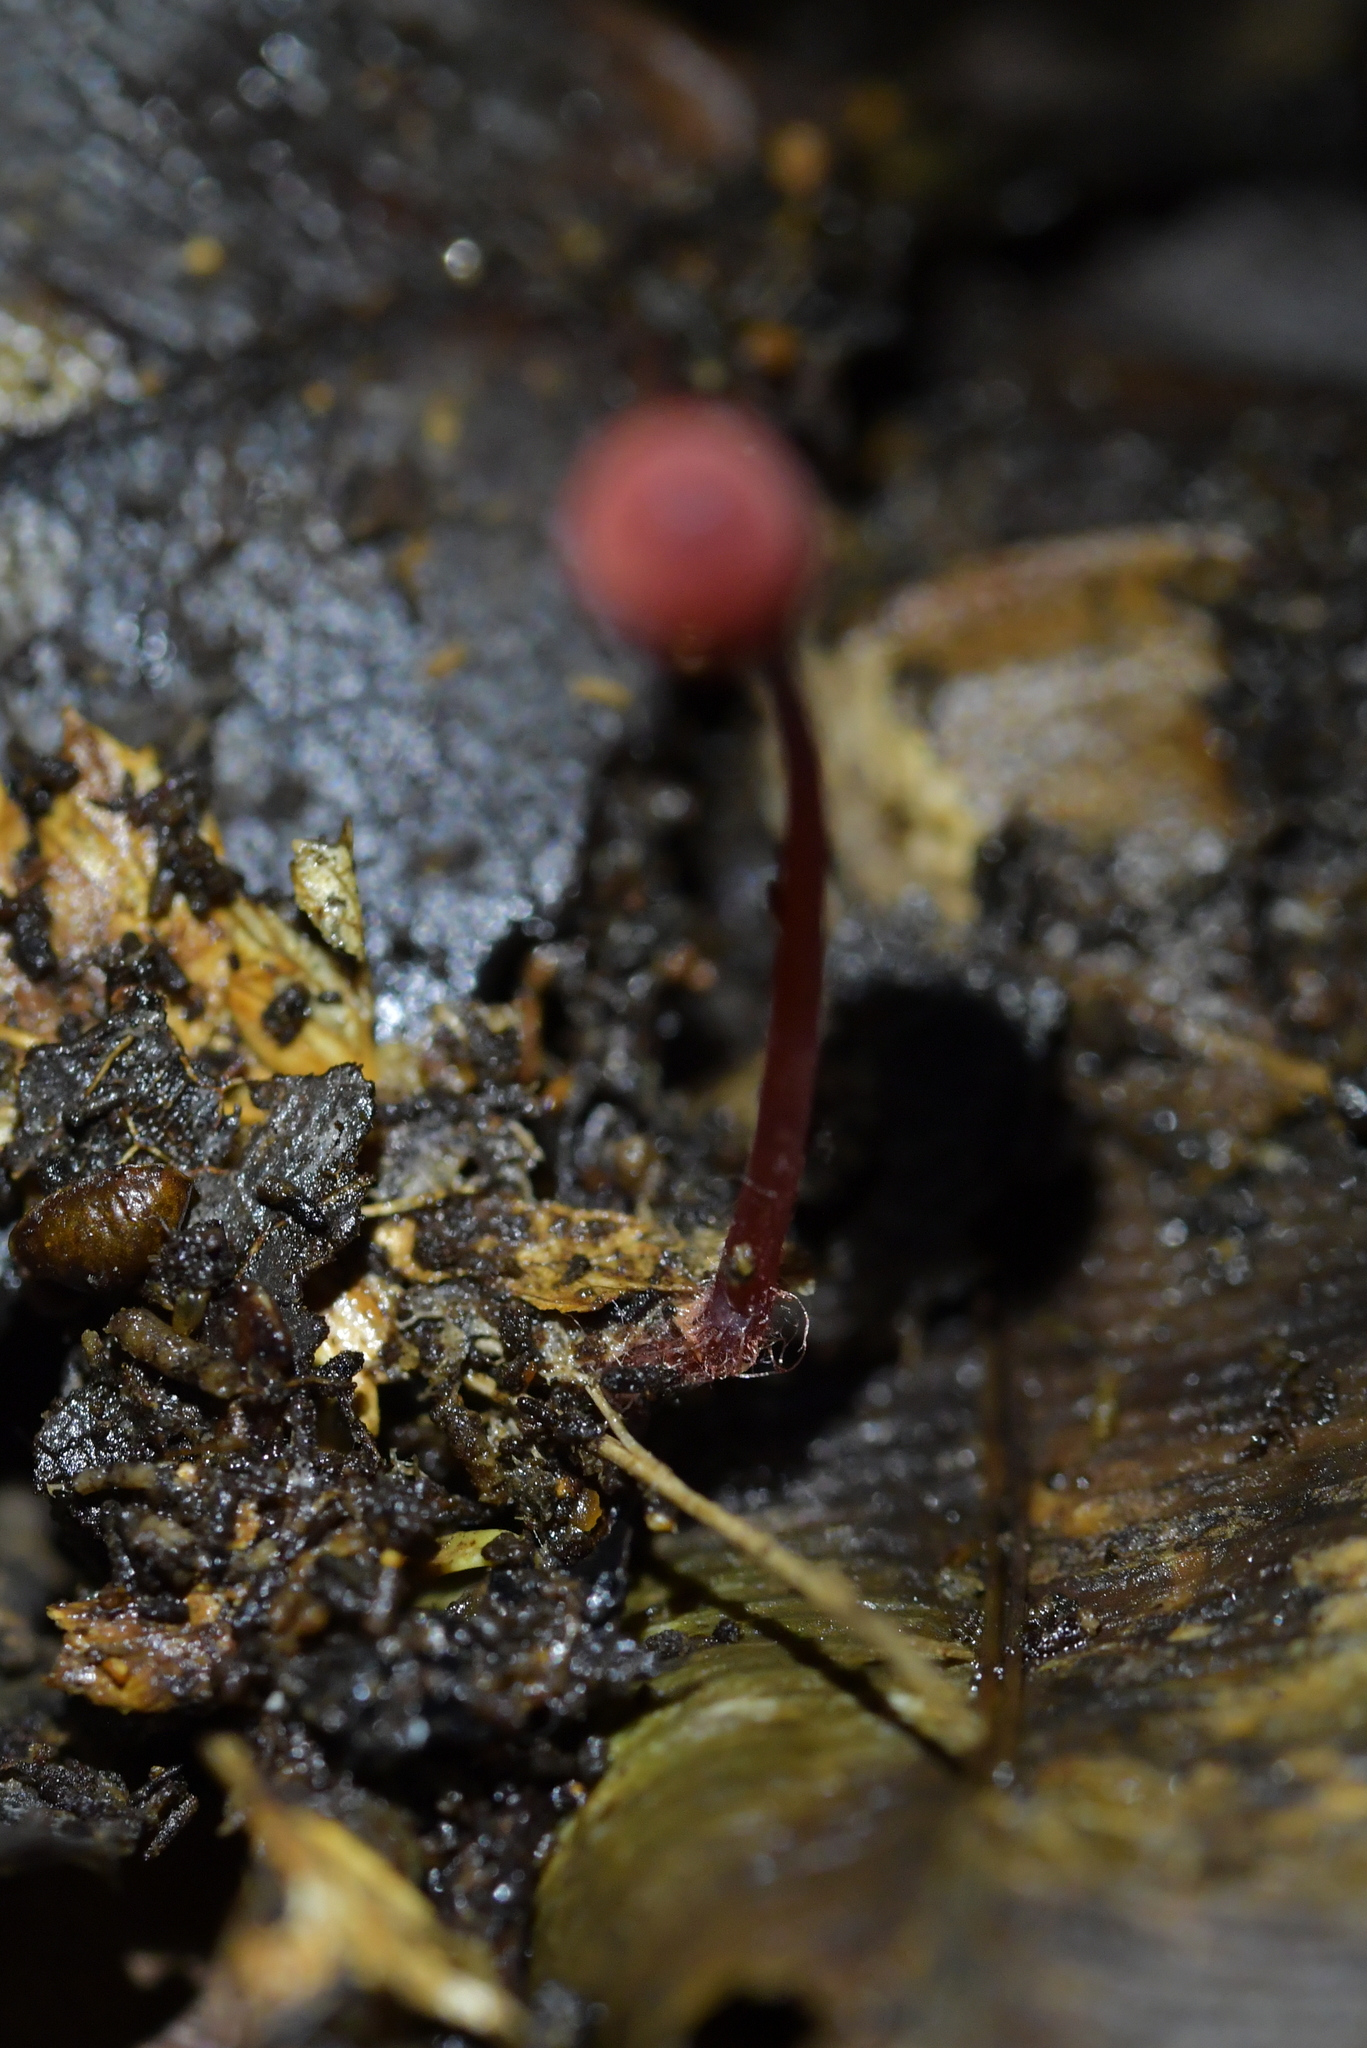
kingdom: Fungi
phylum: Basidiomycota
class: Agaricomycetes
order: Agaricales
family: Mycenaceae
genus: Mycena
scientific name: Mycena ura
